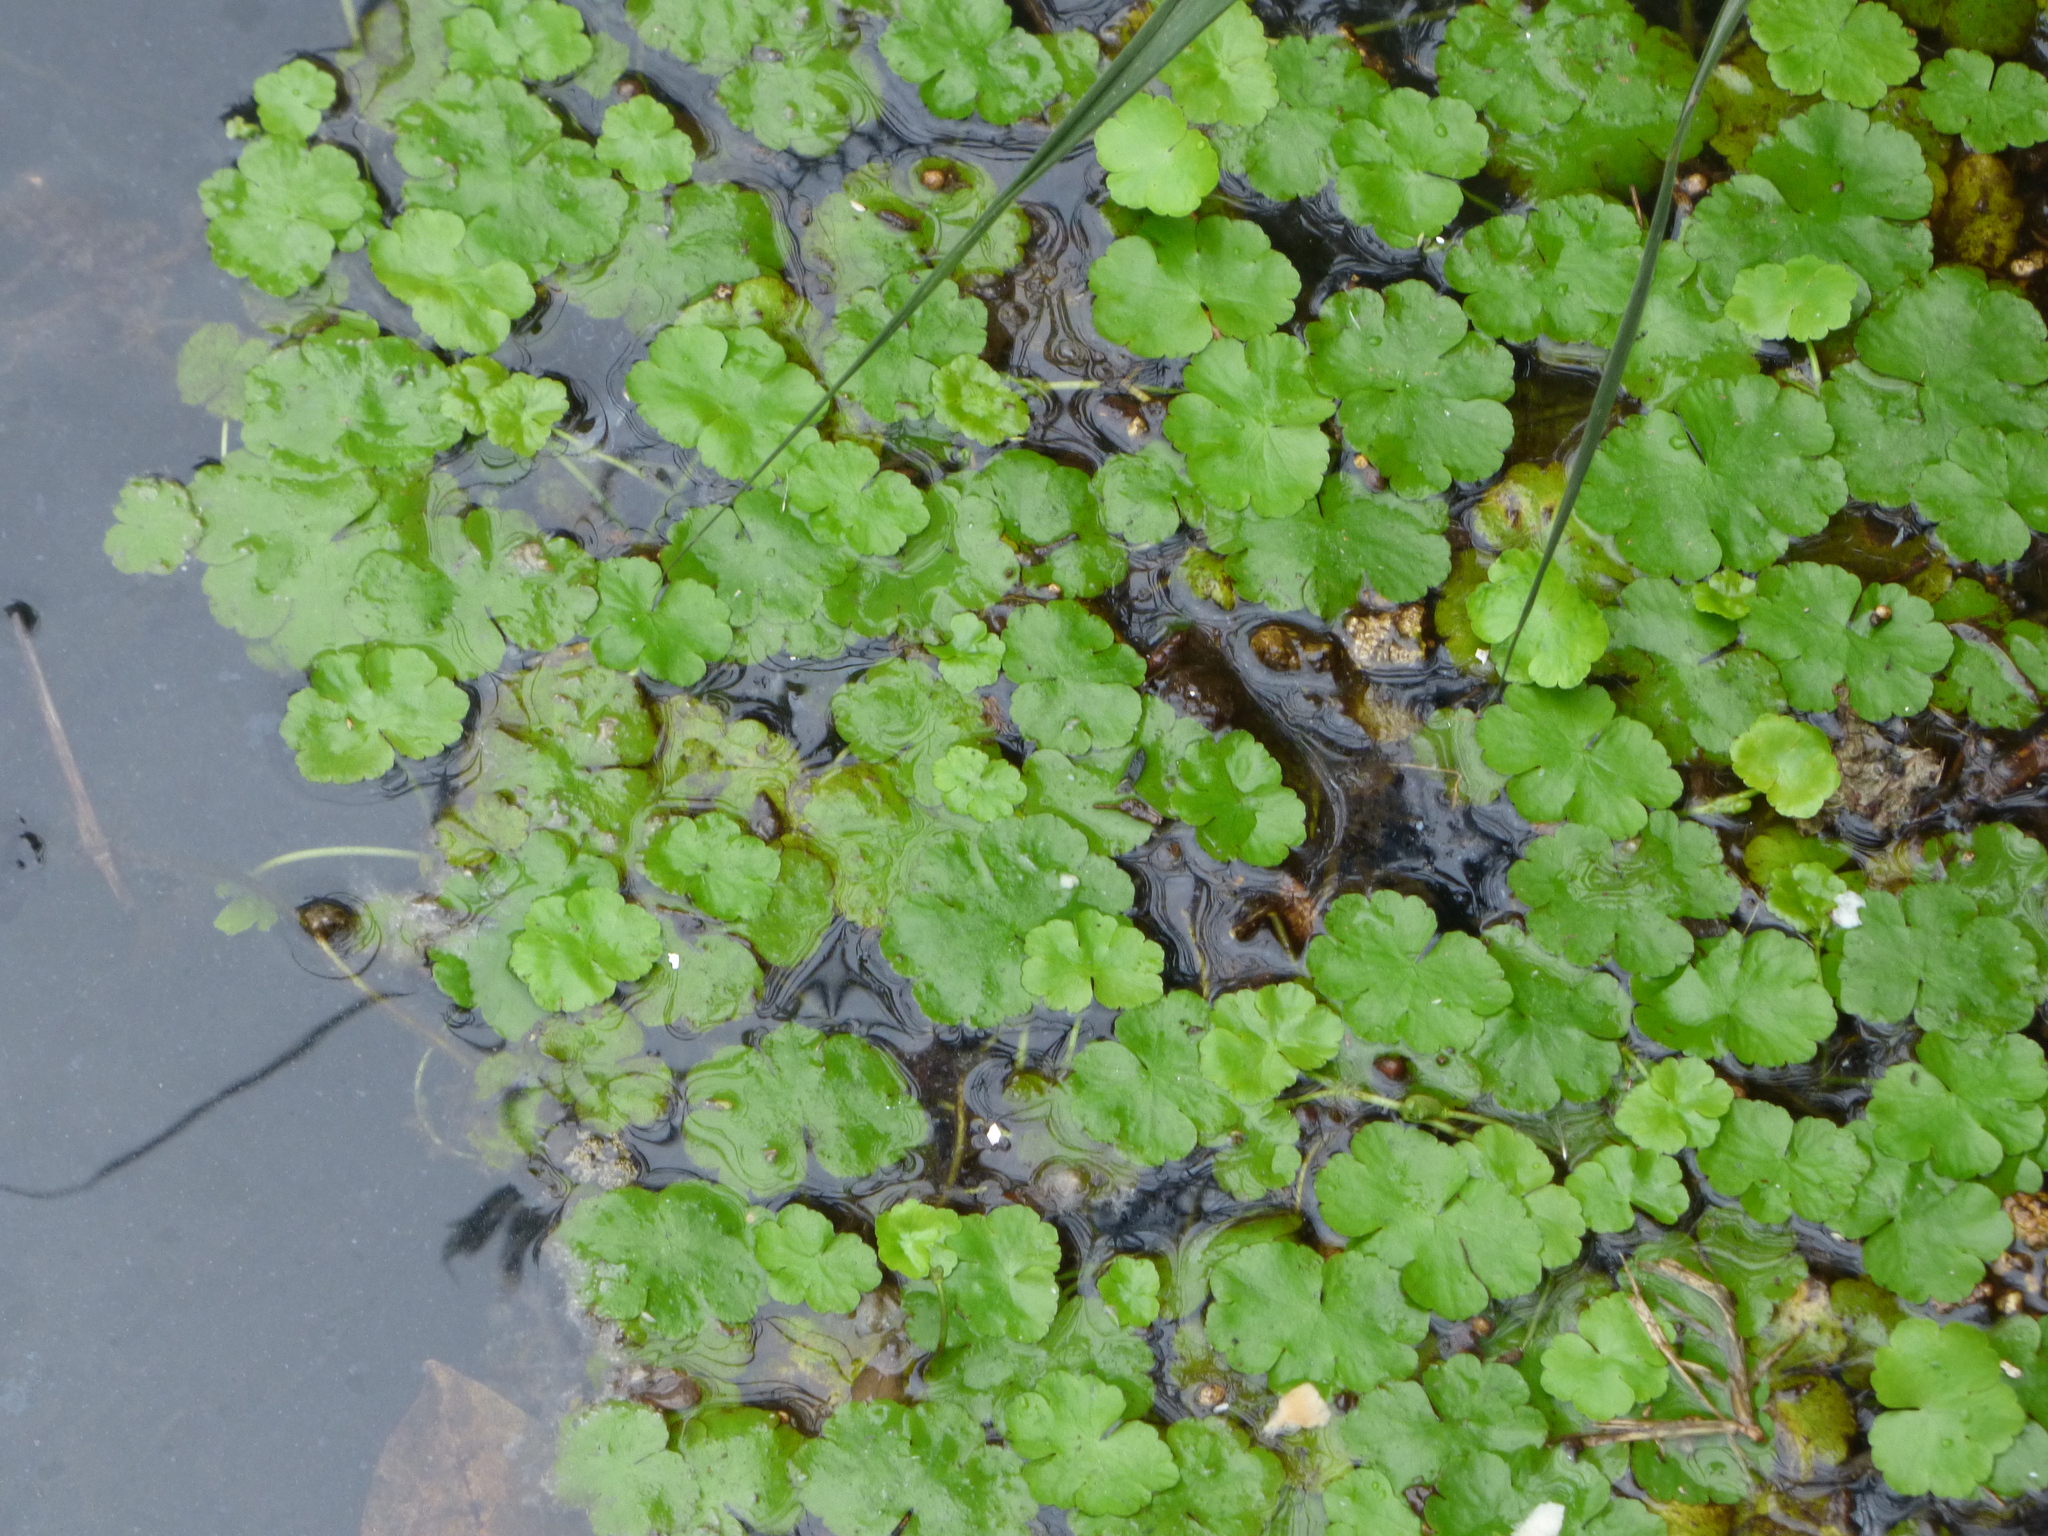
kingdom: Plantae
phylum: Tracheophyta
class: Magnoliopsida
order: Apiales
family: Araliaceae
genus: Hydrocotyle
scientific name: Hydrocotyle ranunculoides
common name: Floating pennywort
